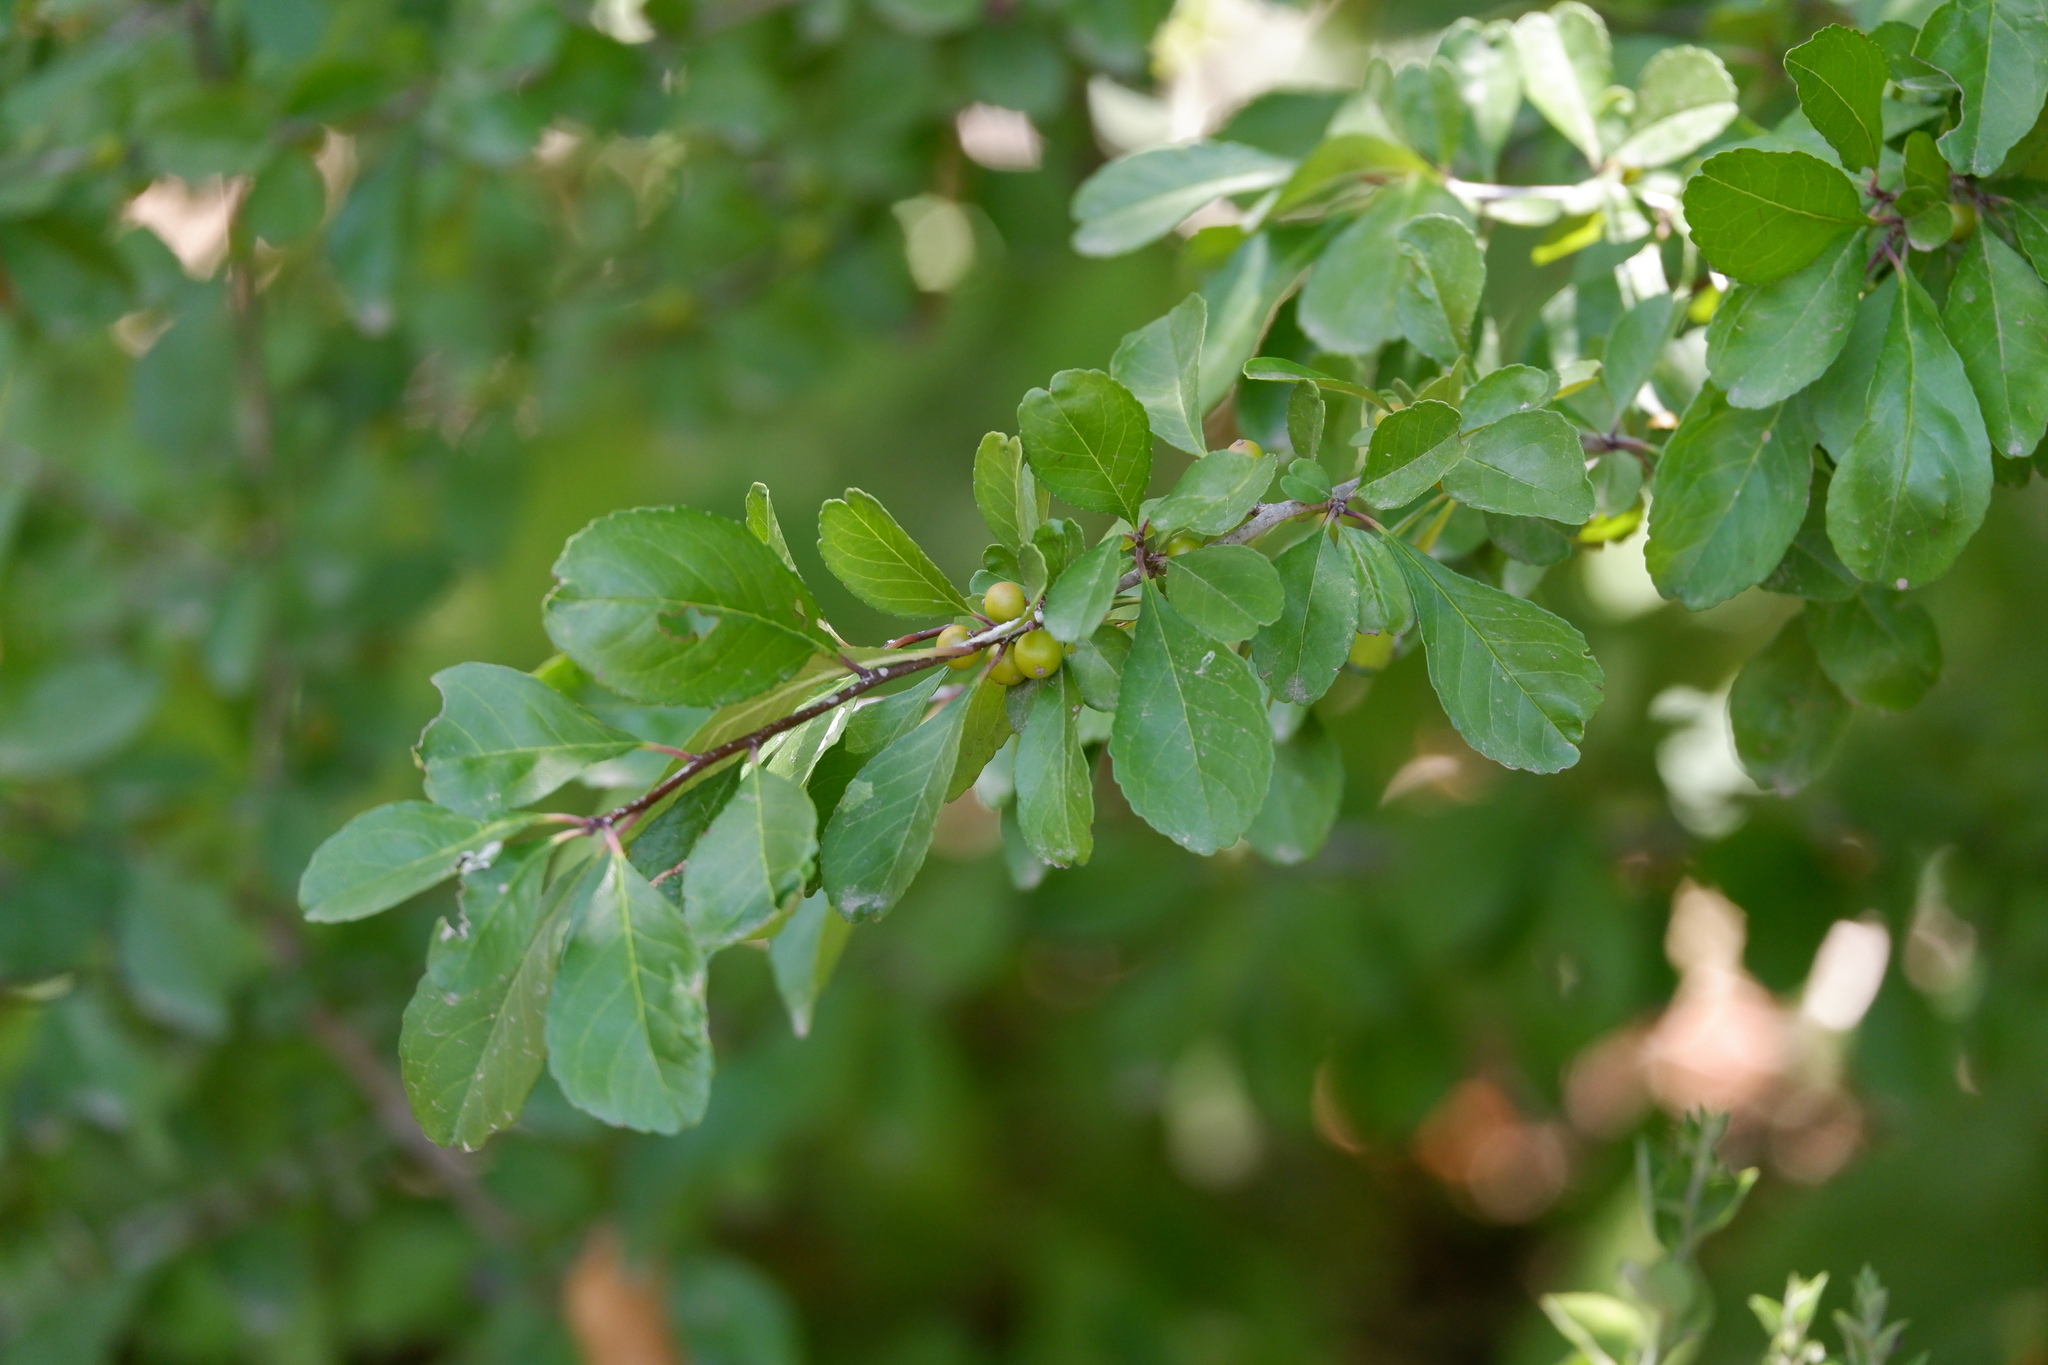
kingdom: Plantae
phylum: Tracheophyta
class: Magnoliopsida
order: Aquifoliales
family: Aquifoliaceae
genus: Ilex
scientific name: Ilex decidua
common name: Possum-haw
